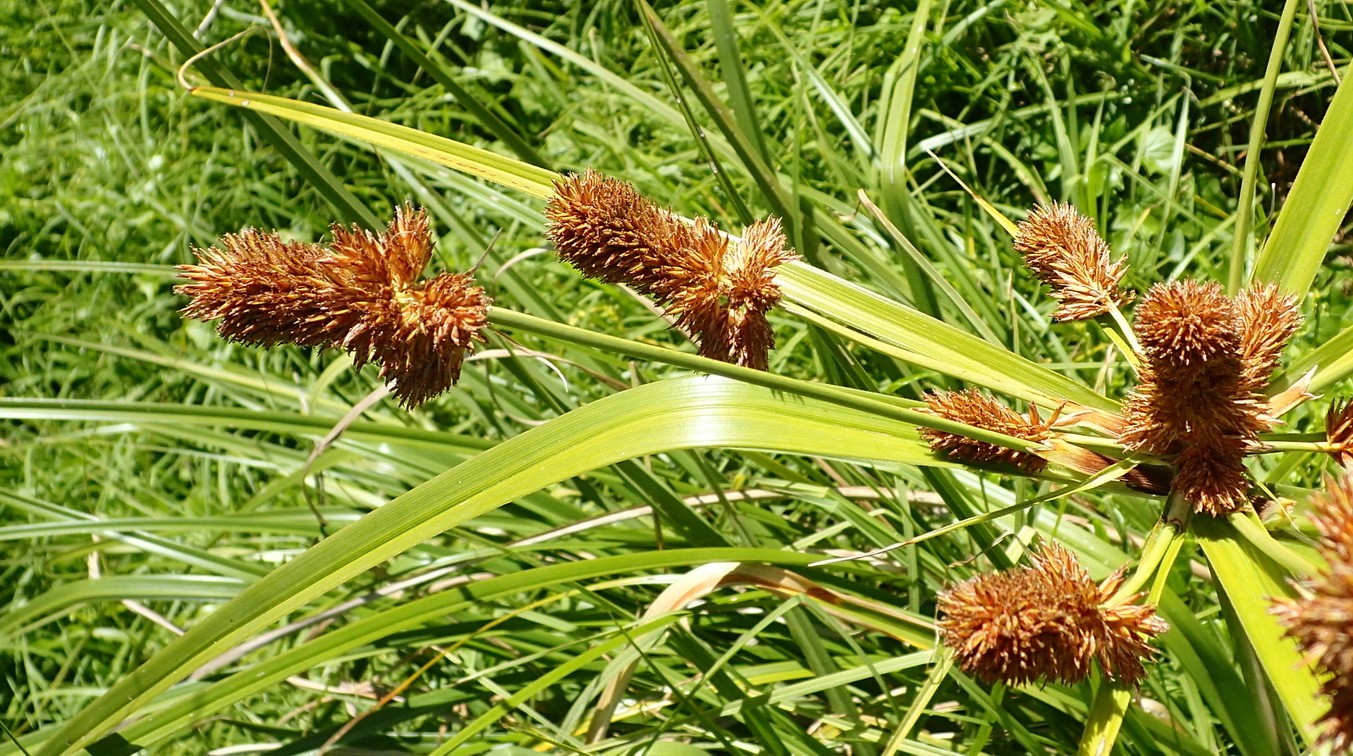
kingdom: Plantae
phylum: Tracheophyta
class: Liliopsida
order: Poales
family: Cyperaceae
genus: Cyperus
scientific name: Cyperus thunbergii
